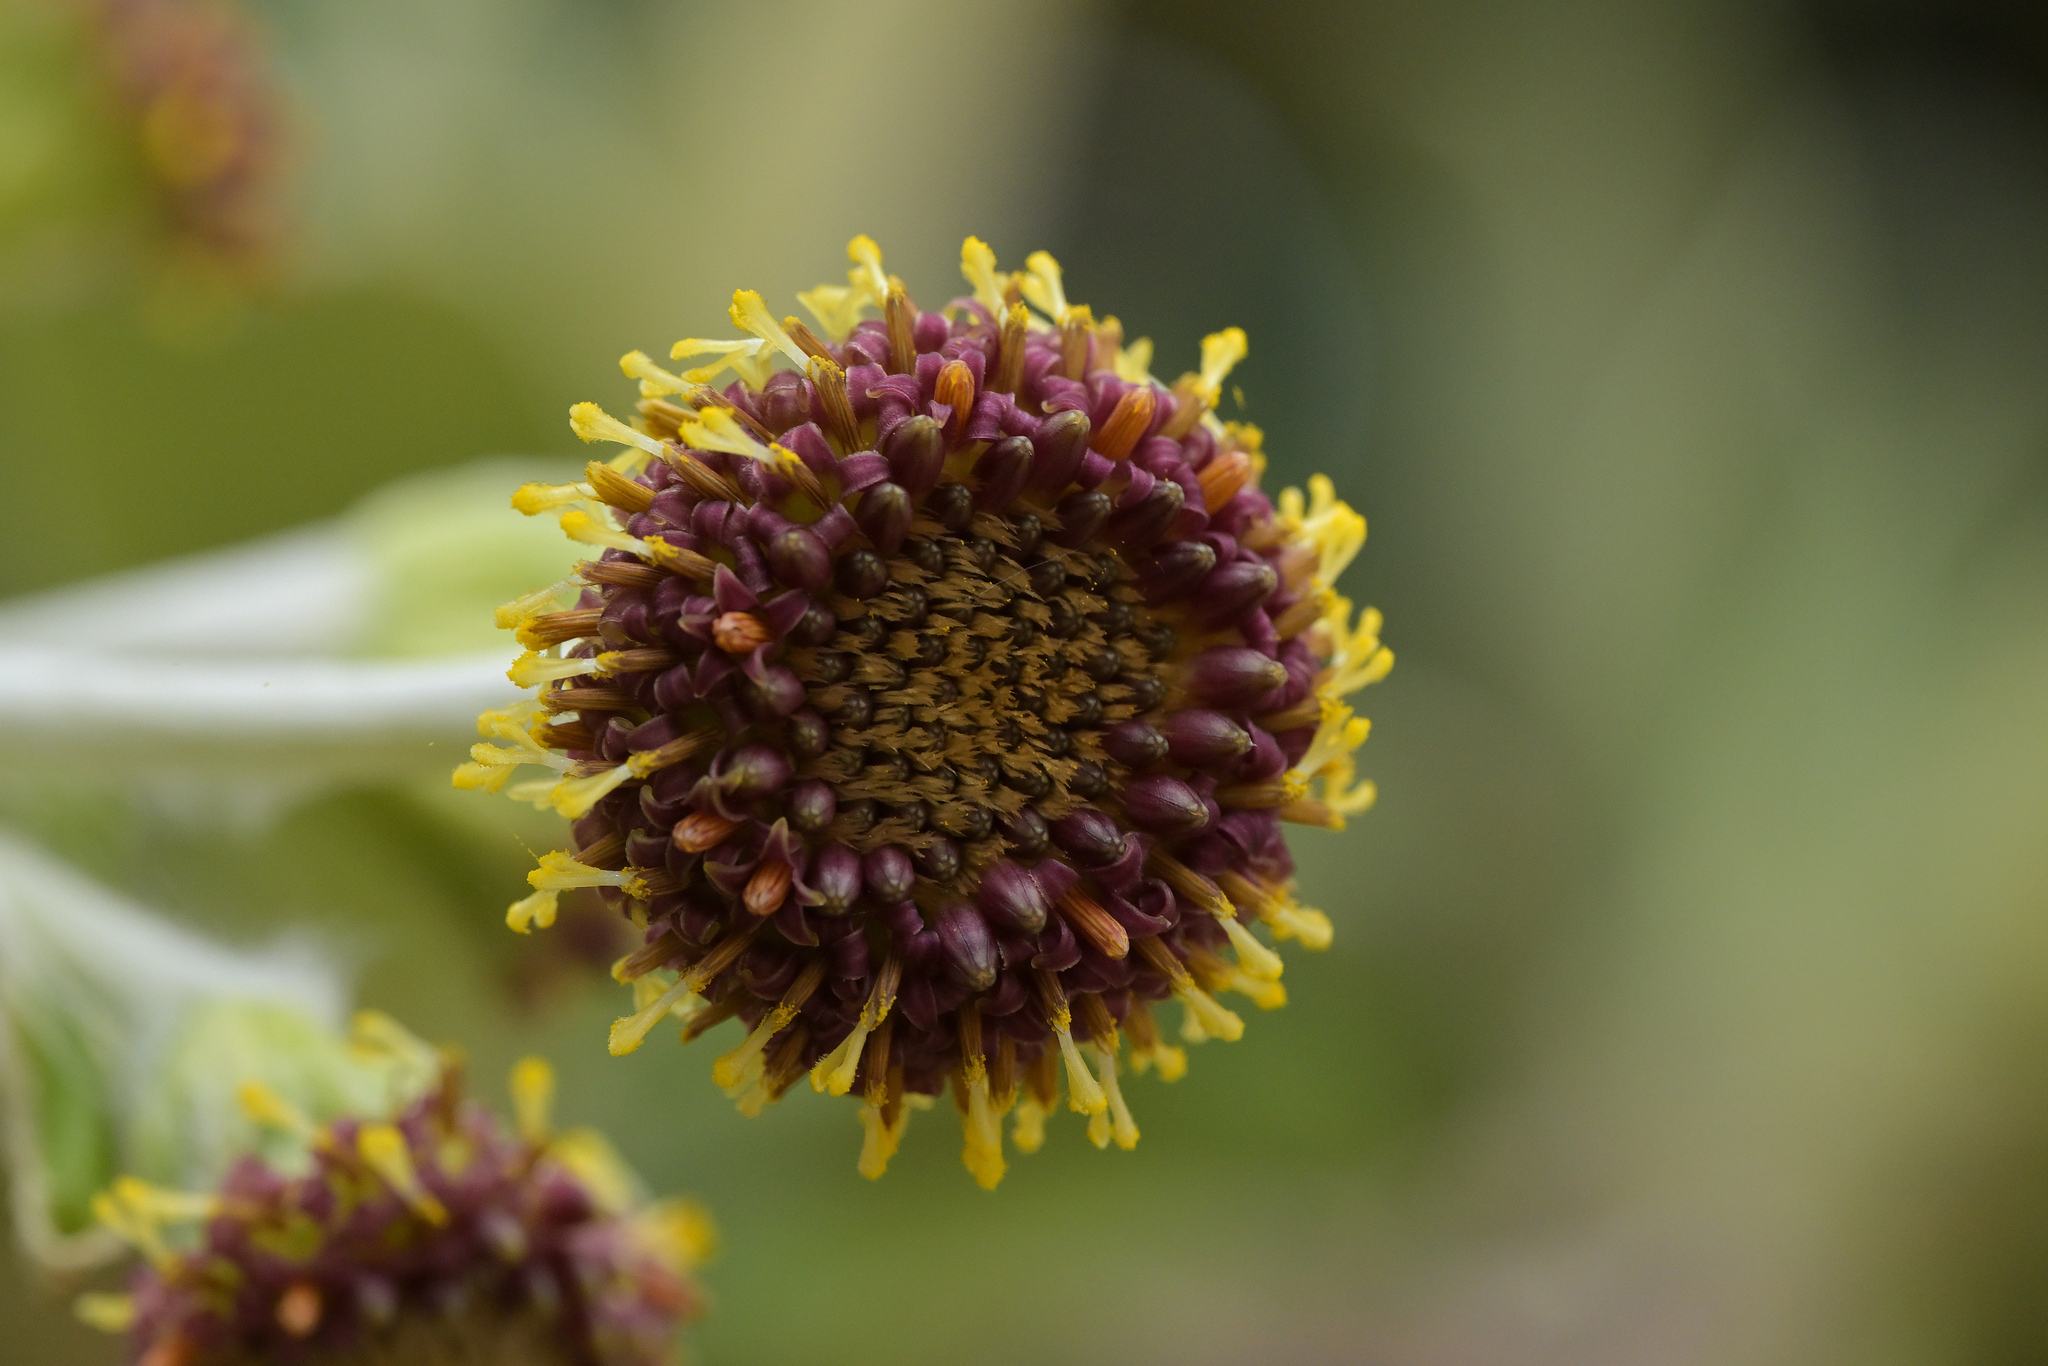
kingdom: Plantae
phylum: Tracheophyta
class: Magnoliopsida
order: Asterales
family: Asteraceae
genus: Macrolearia
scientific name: Macrolearia colensoi
